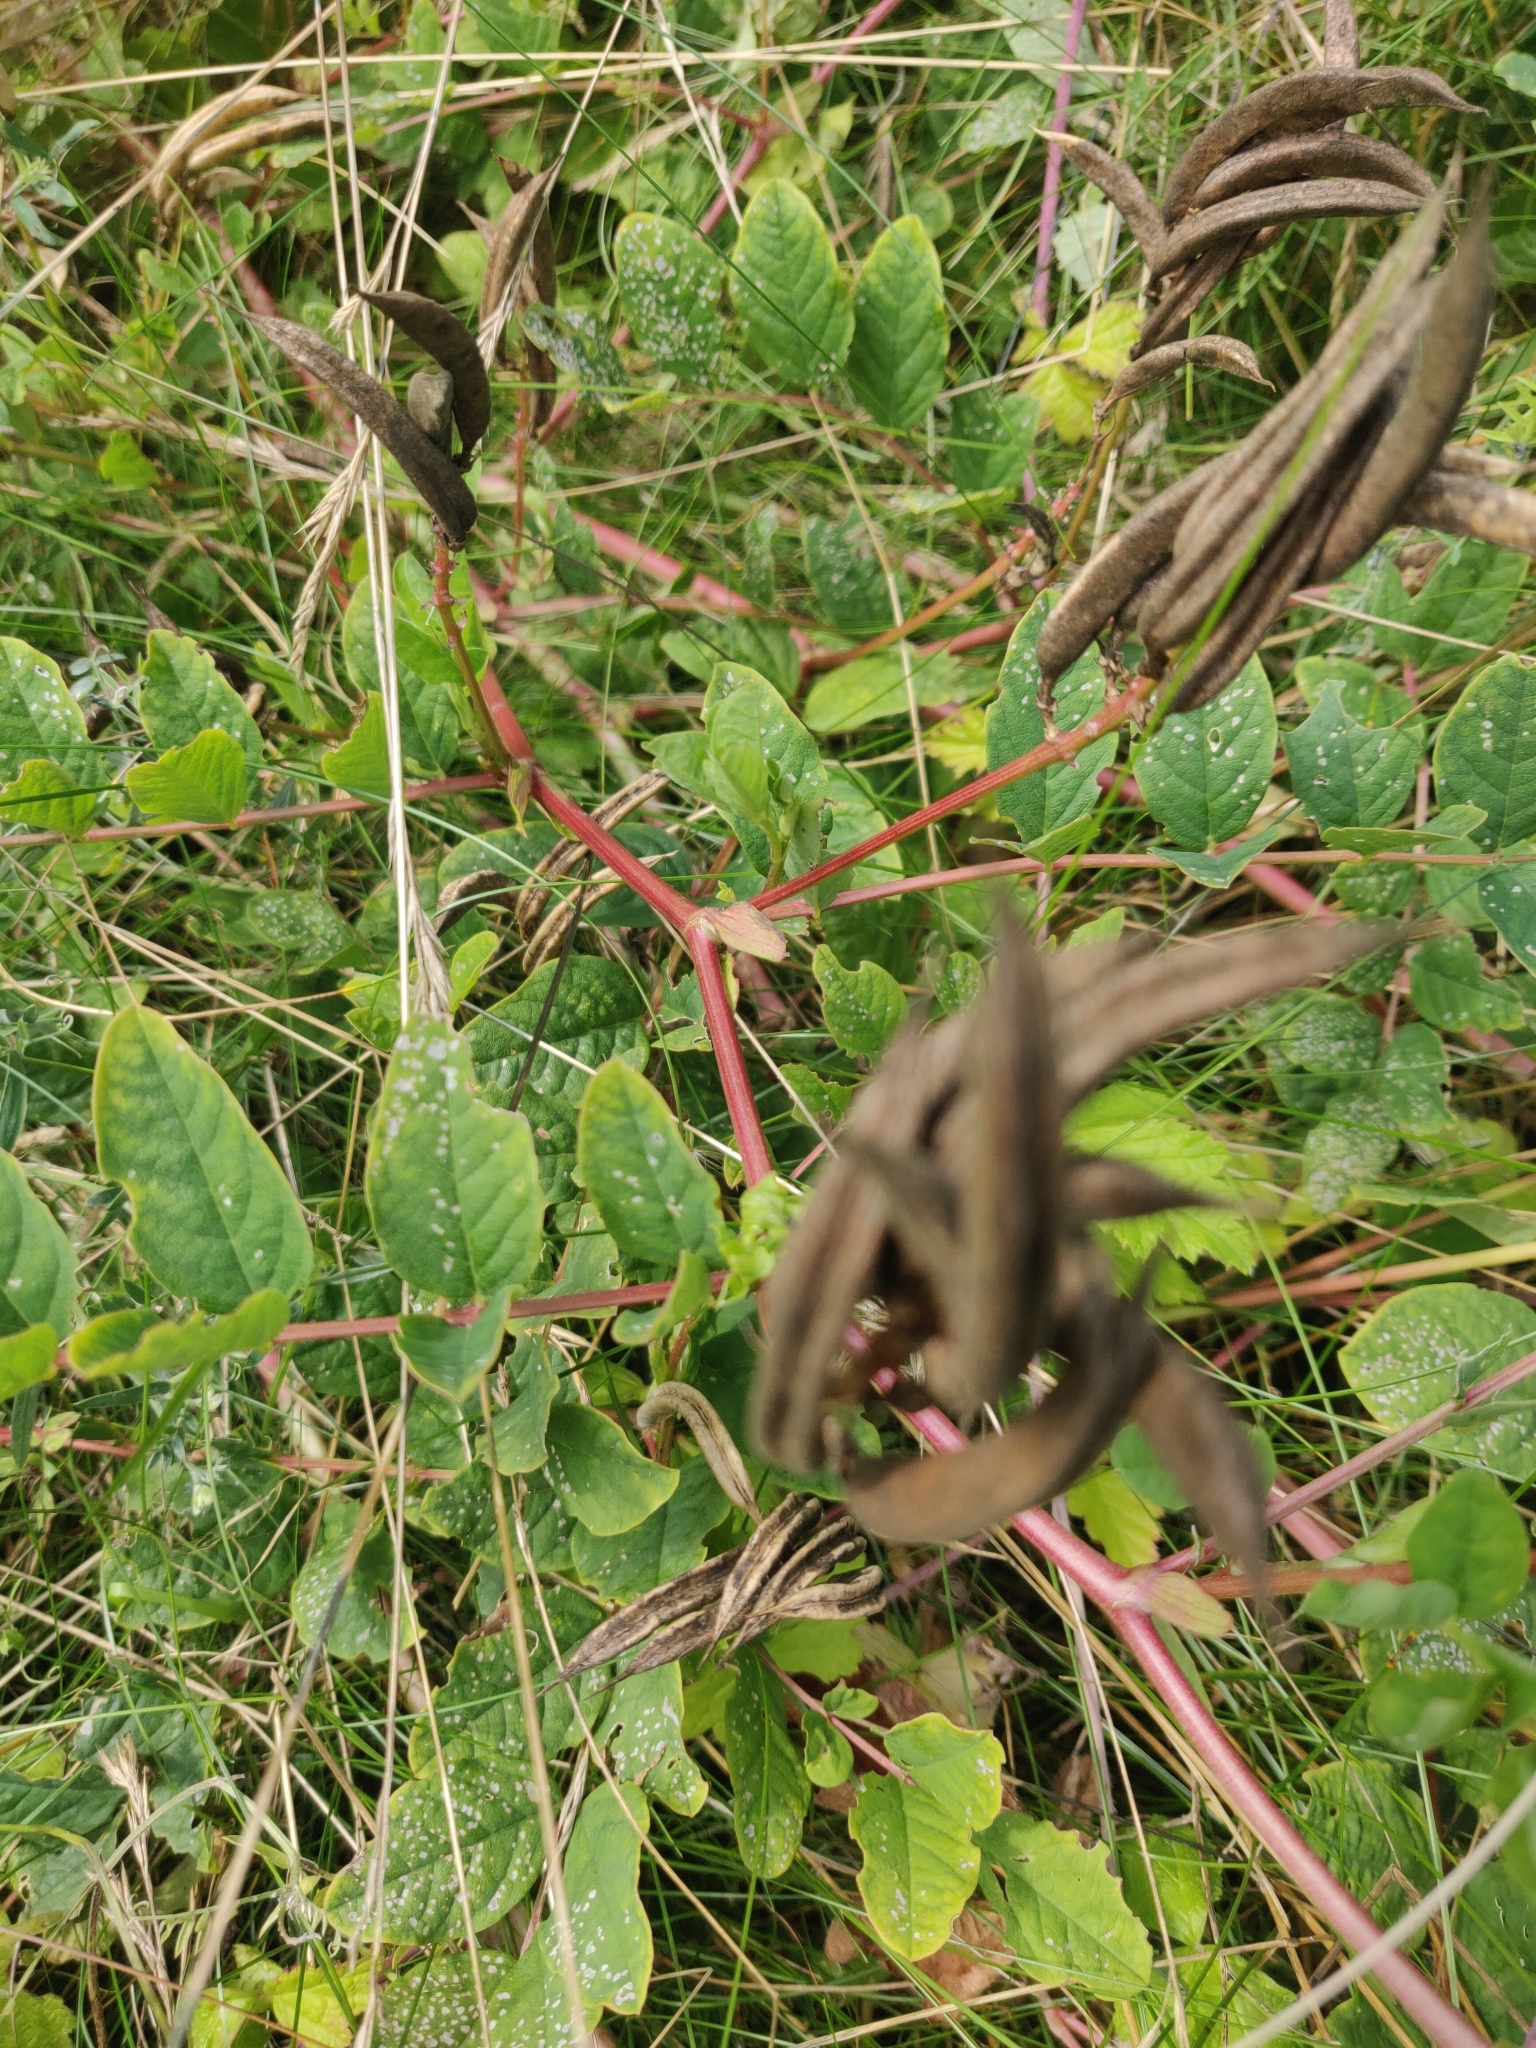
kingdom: Plantae
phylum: Tracheophyta
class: Magnoliopsida
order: Fabales
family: Fabaceae
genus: Astragalus
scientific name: Astragalus glycyphyllos
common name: Wild liquorice
